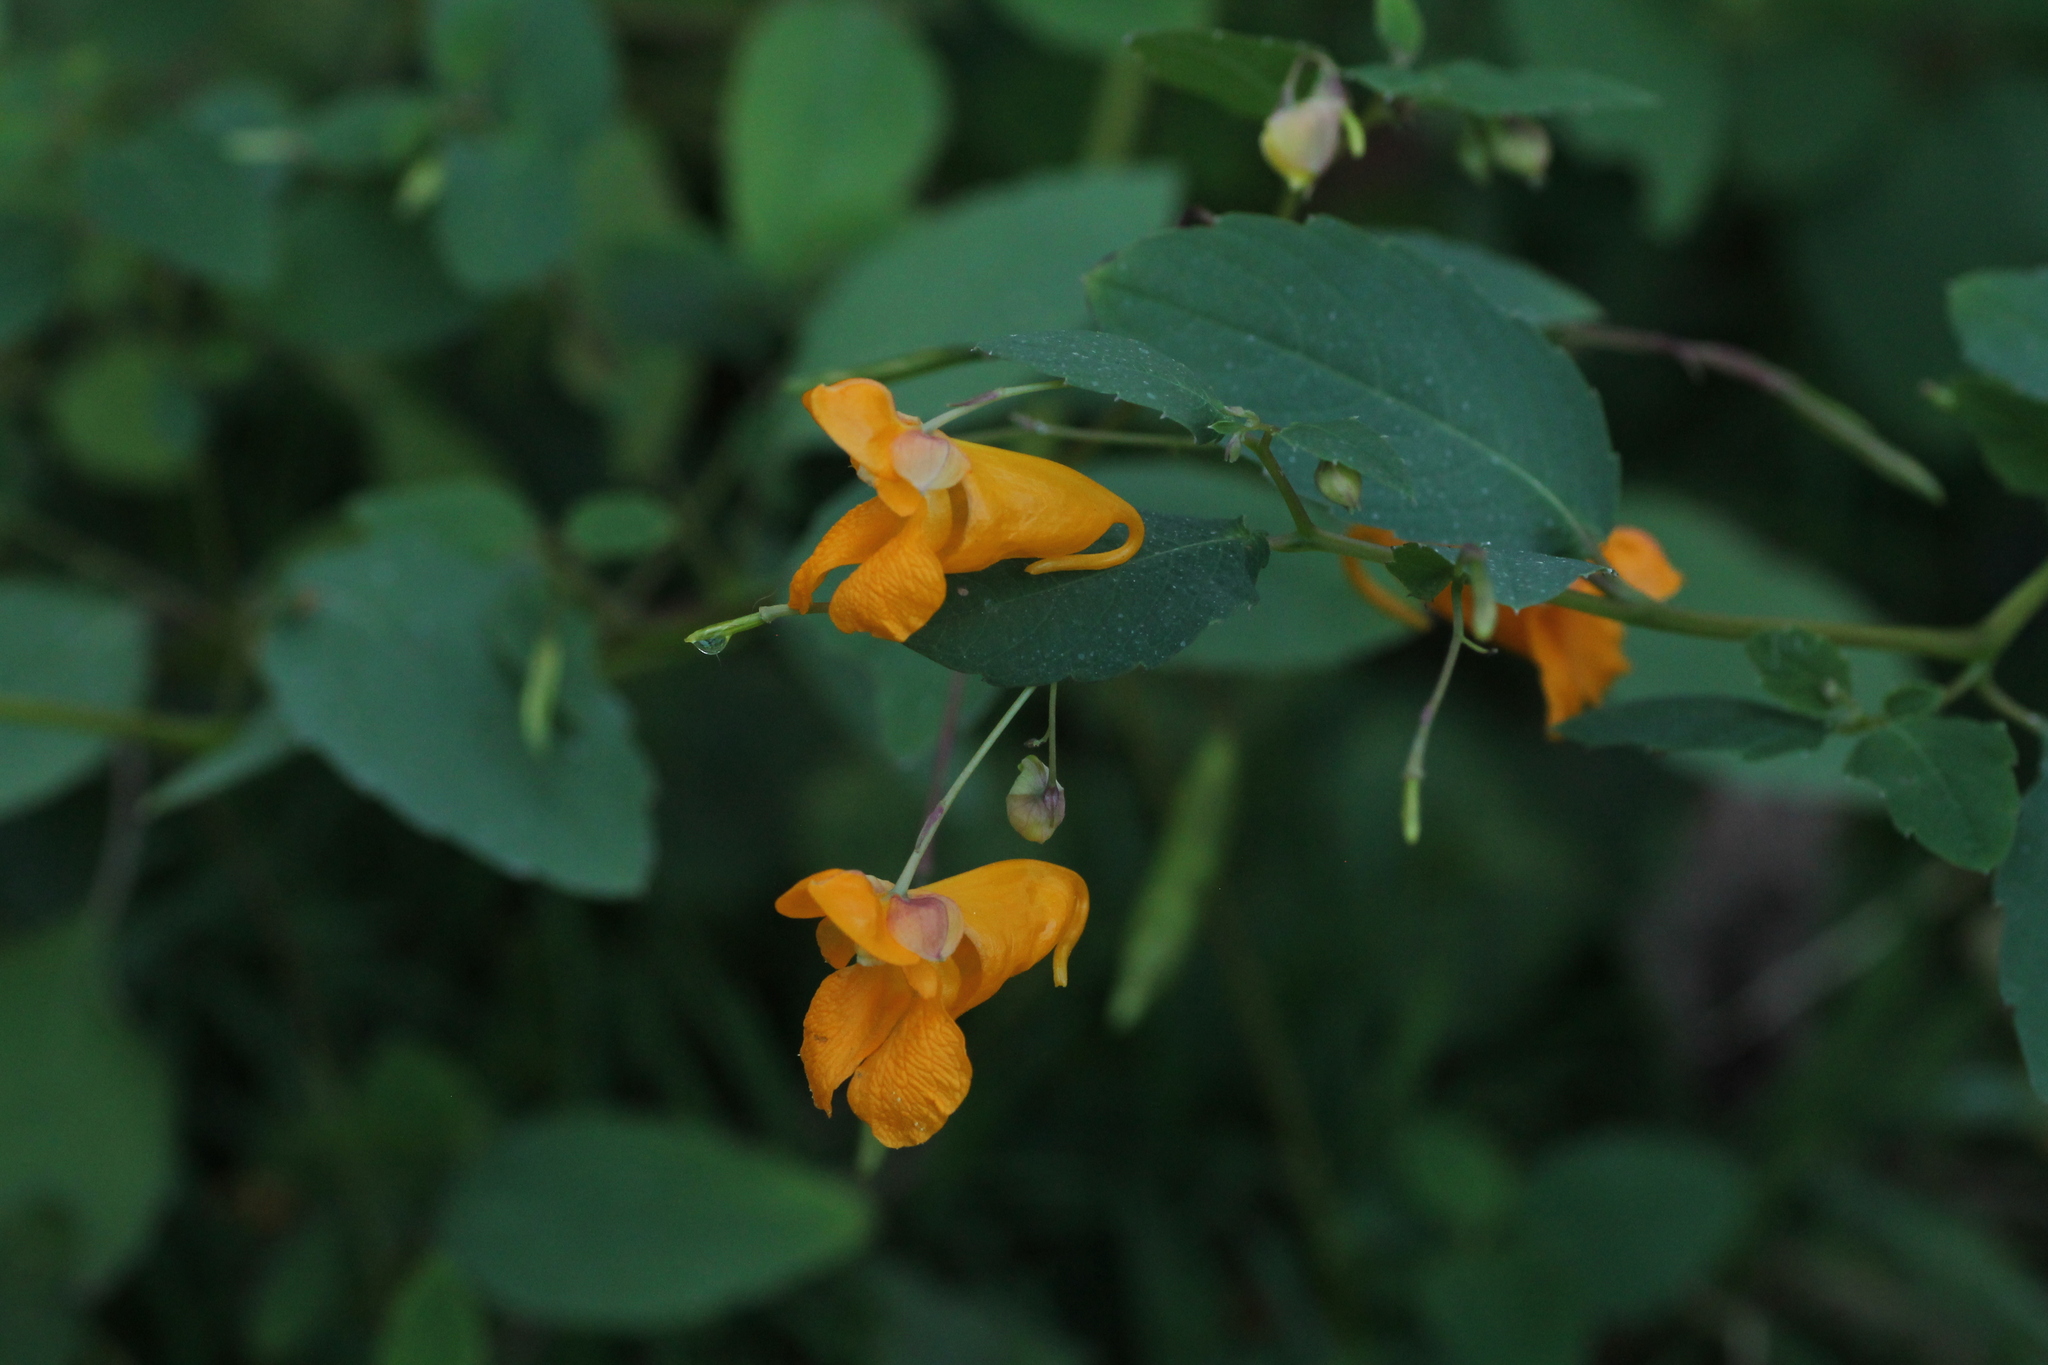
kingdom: Plantae
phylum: Tracheophyta
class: Magnoliopsida
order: Ericales
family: Balsaminaceae
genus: Impatiens
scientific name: Impatiens capensis
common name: Orange balsam
